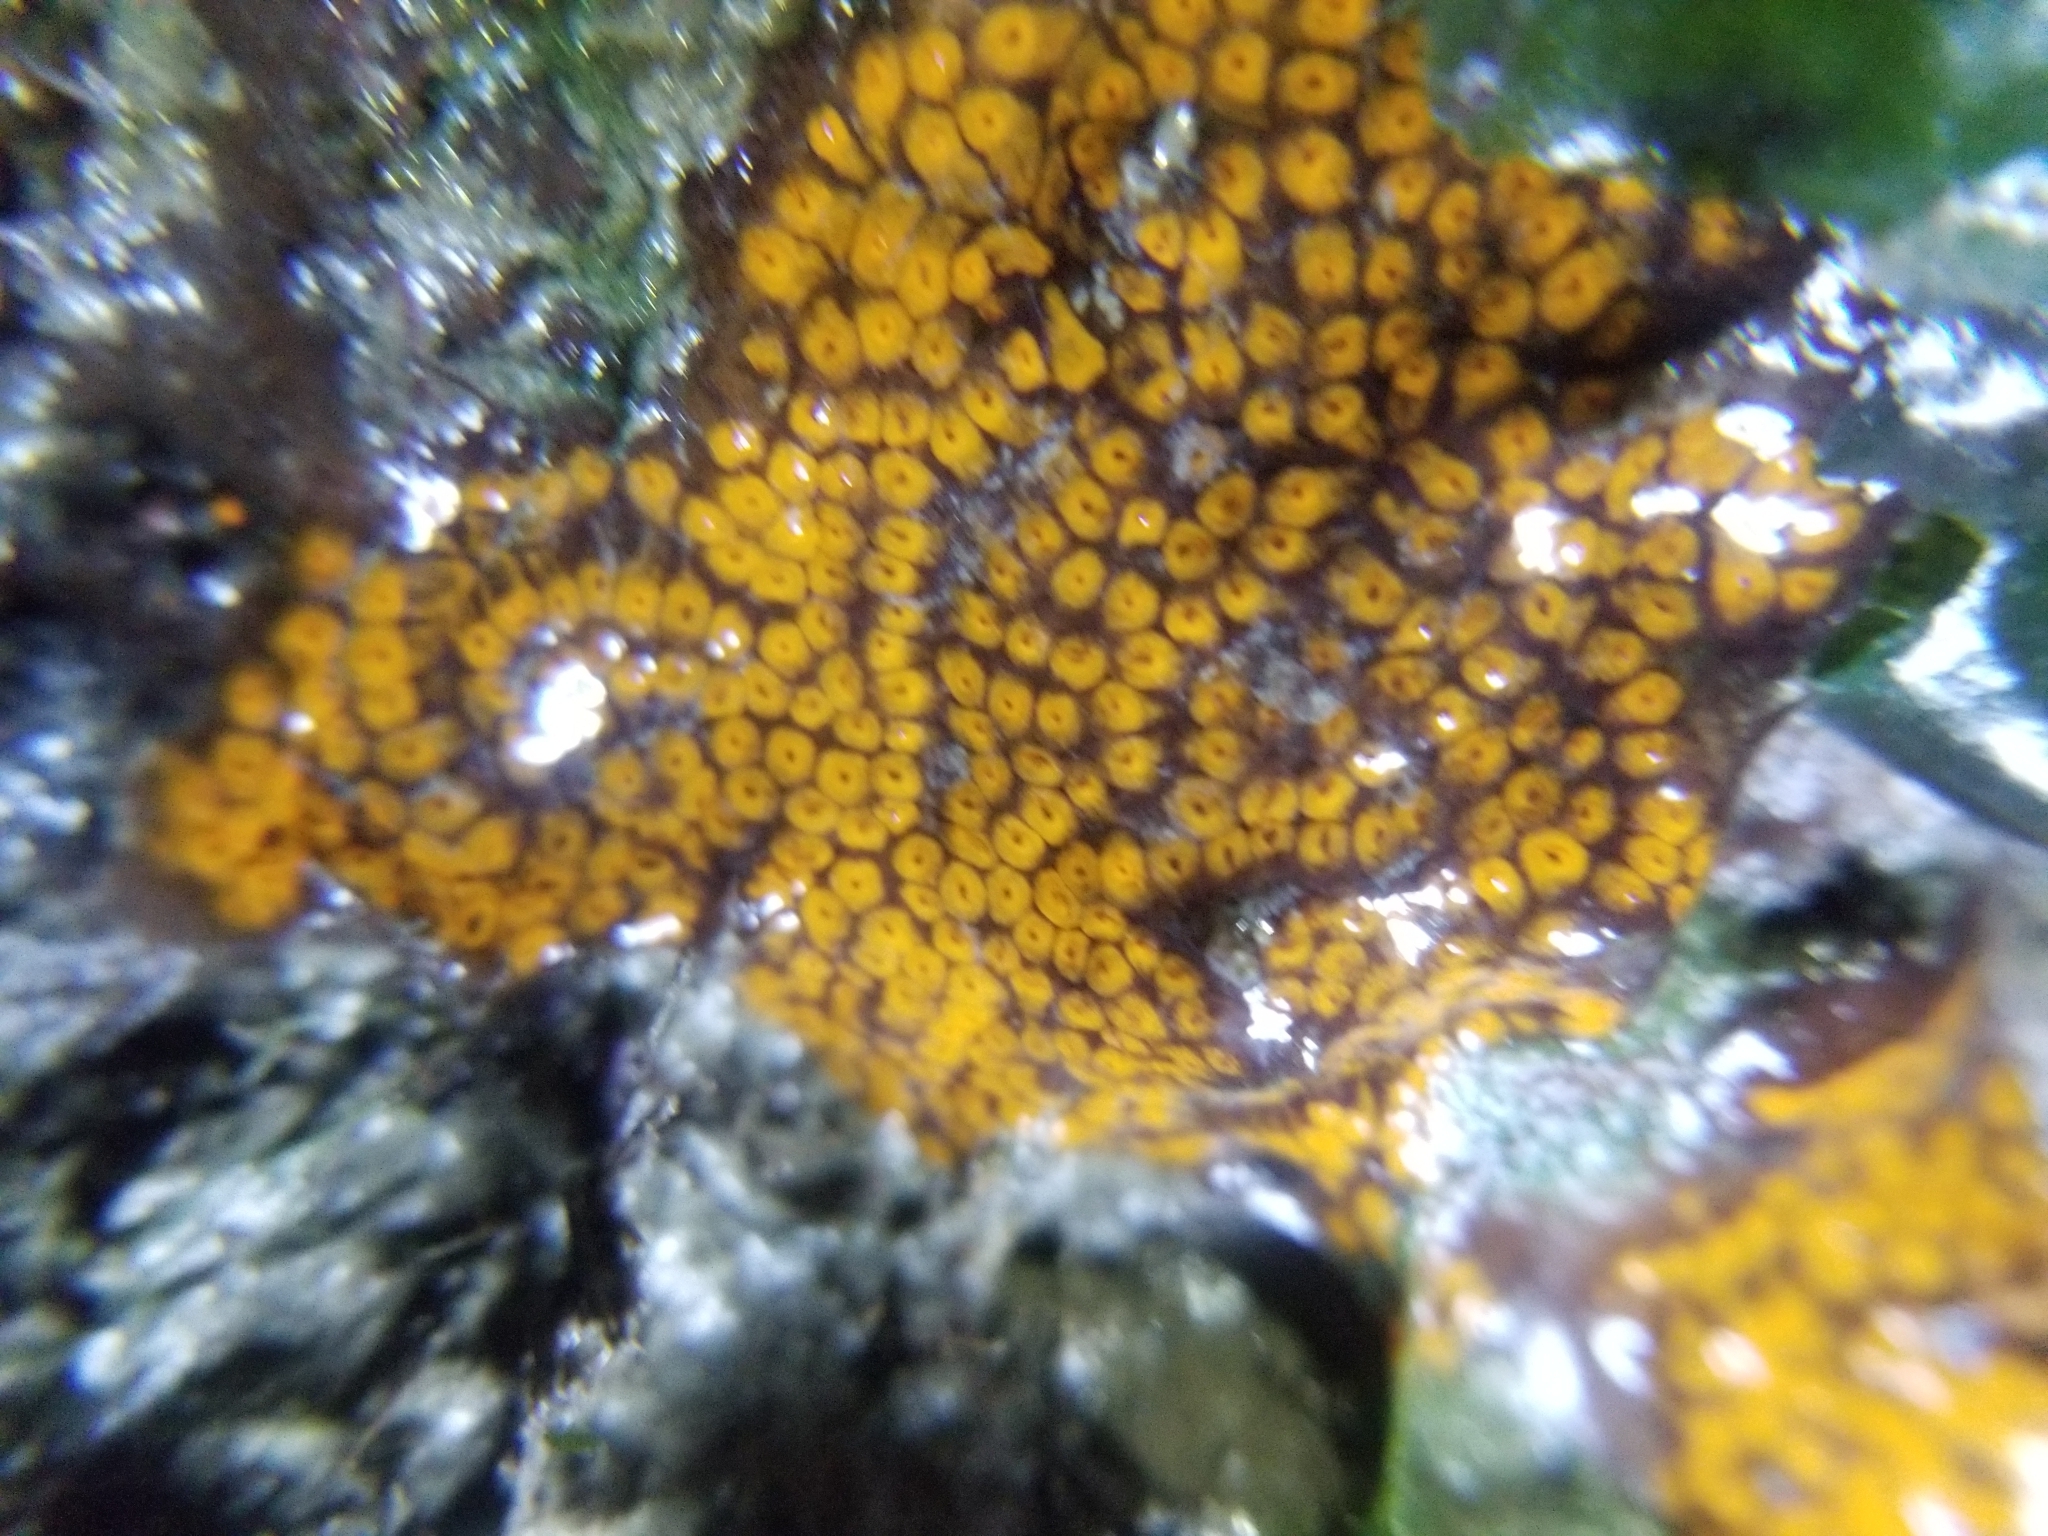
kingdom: Animalia
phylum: Chordata
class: Ascidiacea
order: Stolidobranchia
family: Styelidae
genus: Botrylloides
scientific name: Botrylloides diegensis
